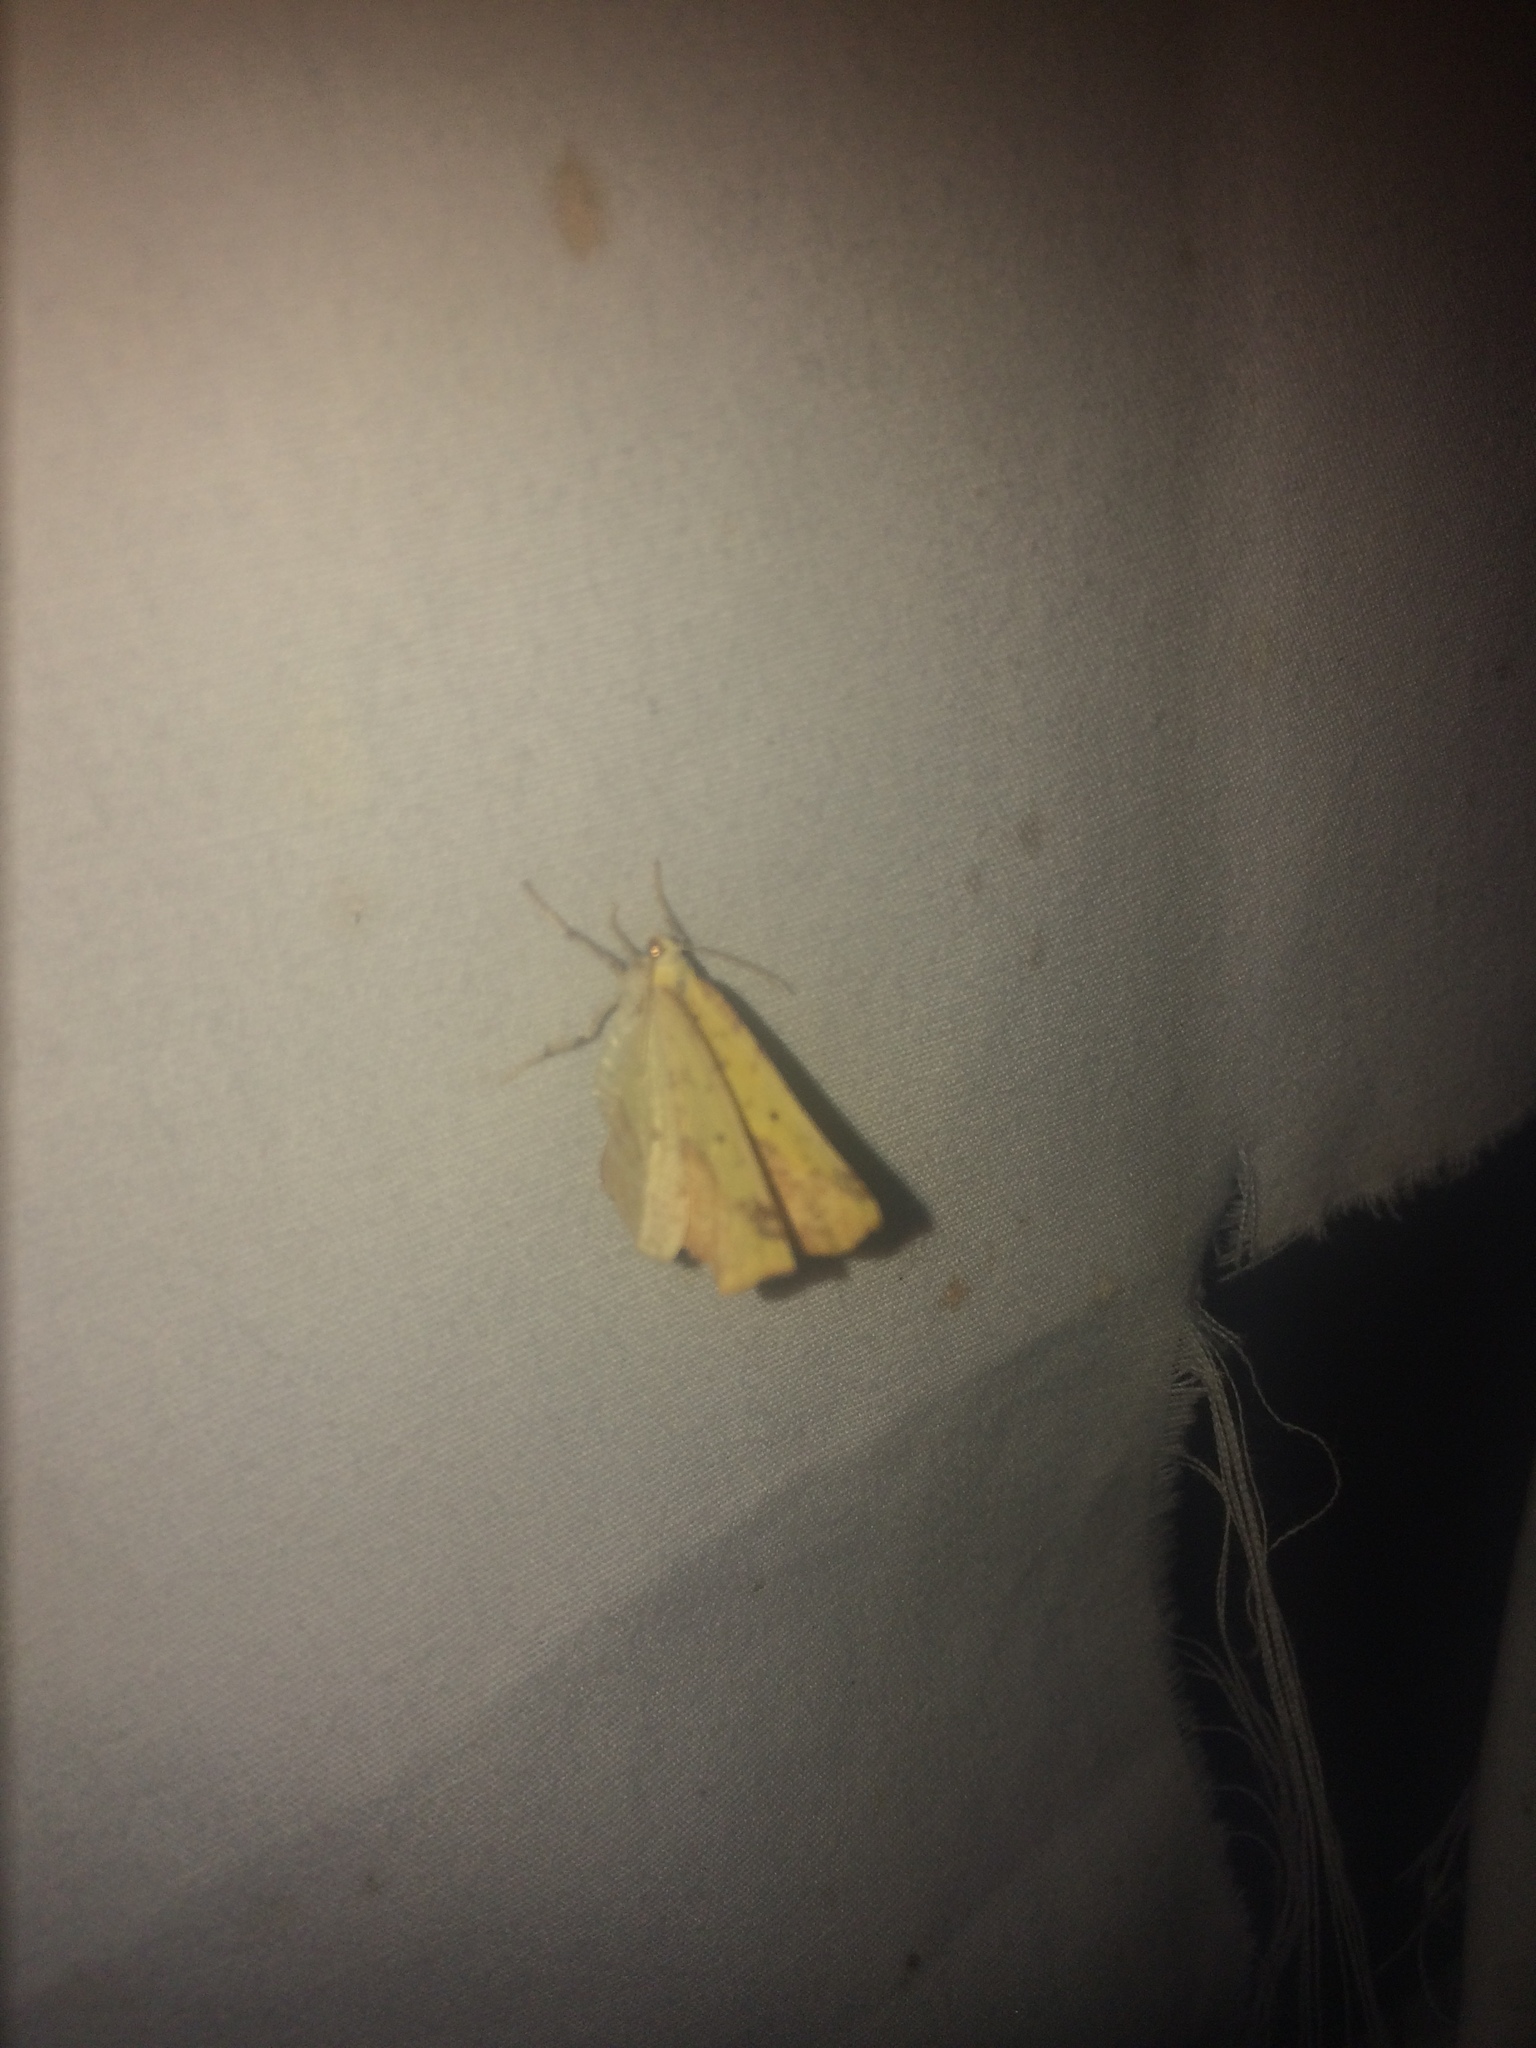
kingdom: Animalia
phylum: Arthropoda
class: Insecta
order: Lepidoptera
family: Geometridae
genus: Sicya
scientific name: Sicya macularia
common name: Sharp-lined yellow
